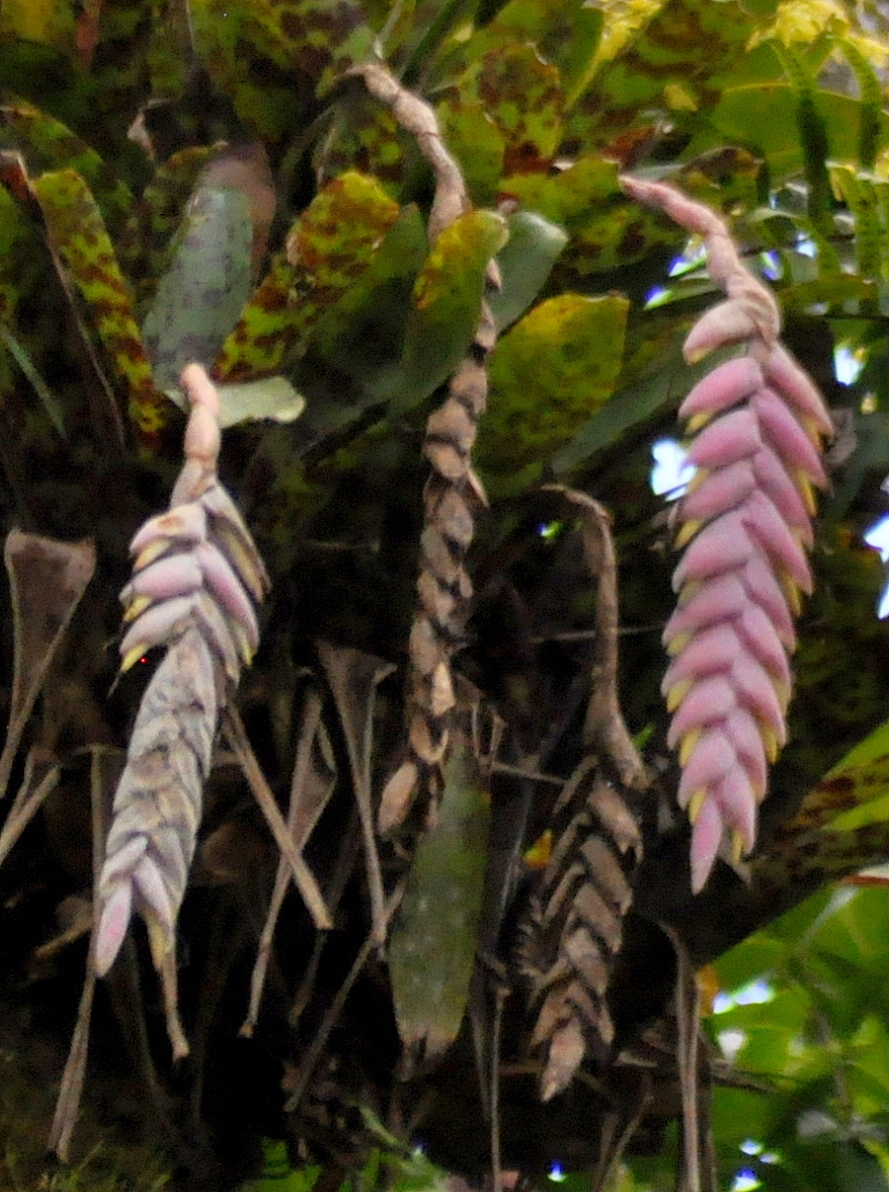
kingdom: Plantae
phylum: Tracheophyta
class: Liliopsida
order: Poales
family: Bromeliaceae
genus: Vriesea
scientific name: Vriesea guttata
